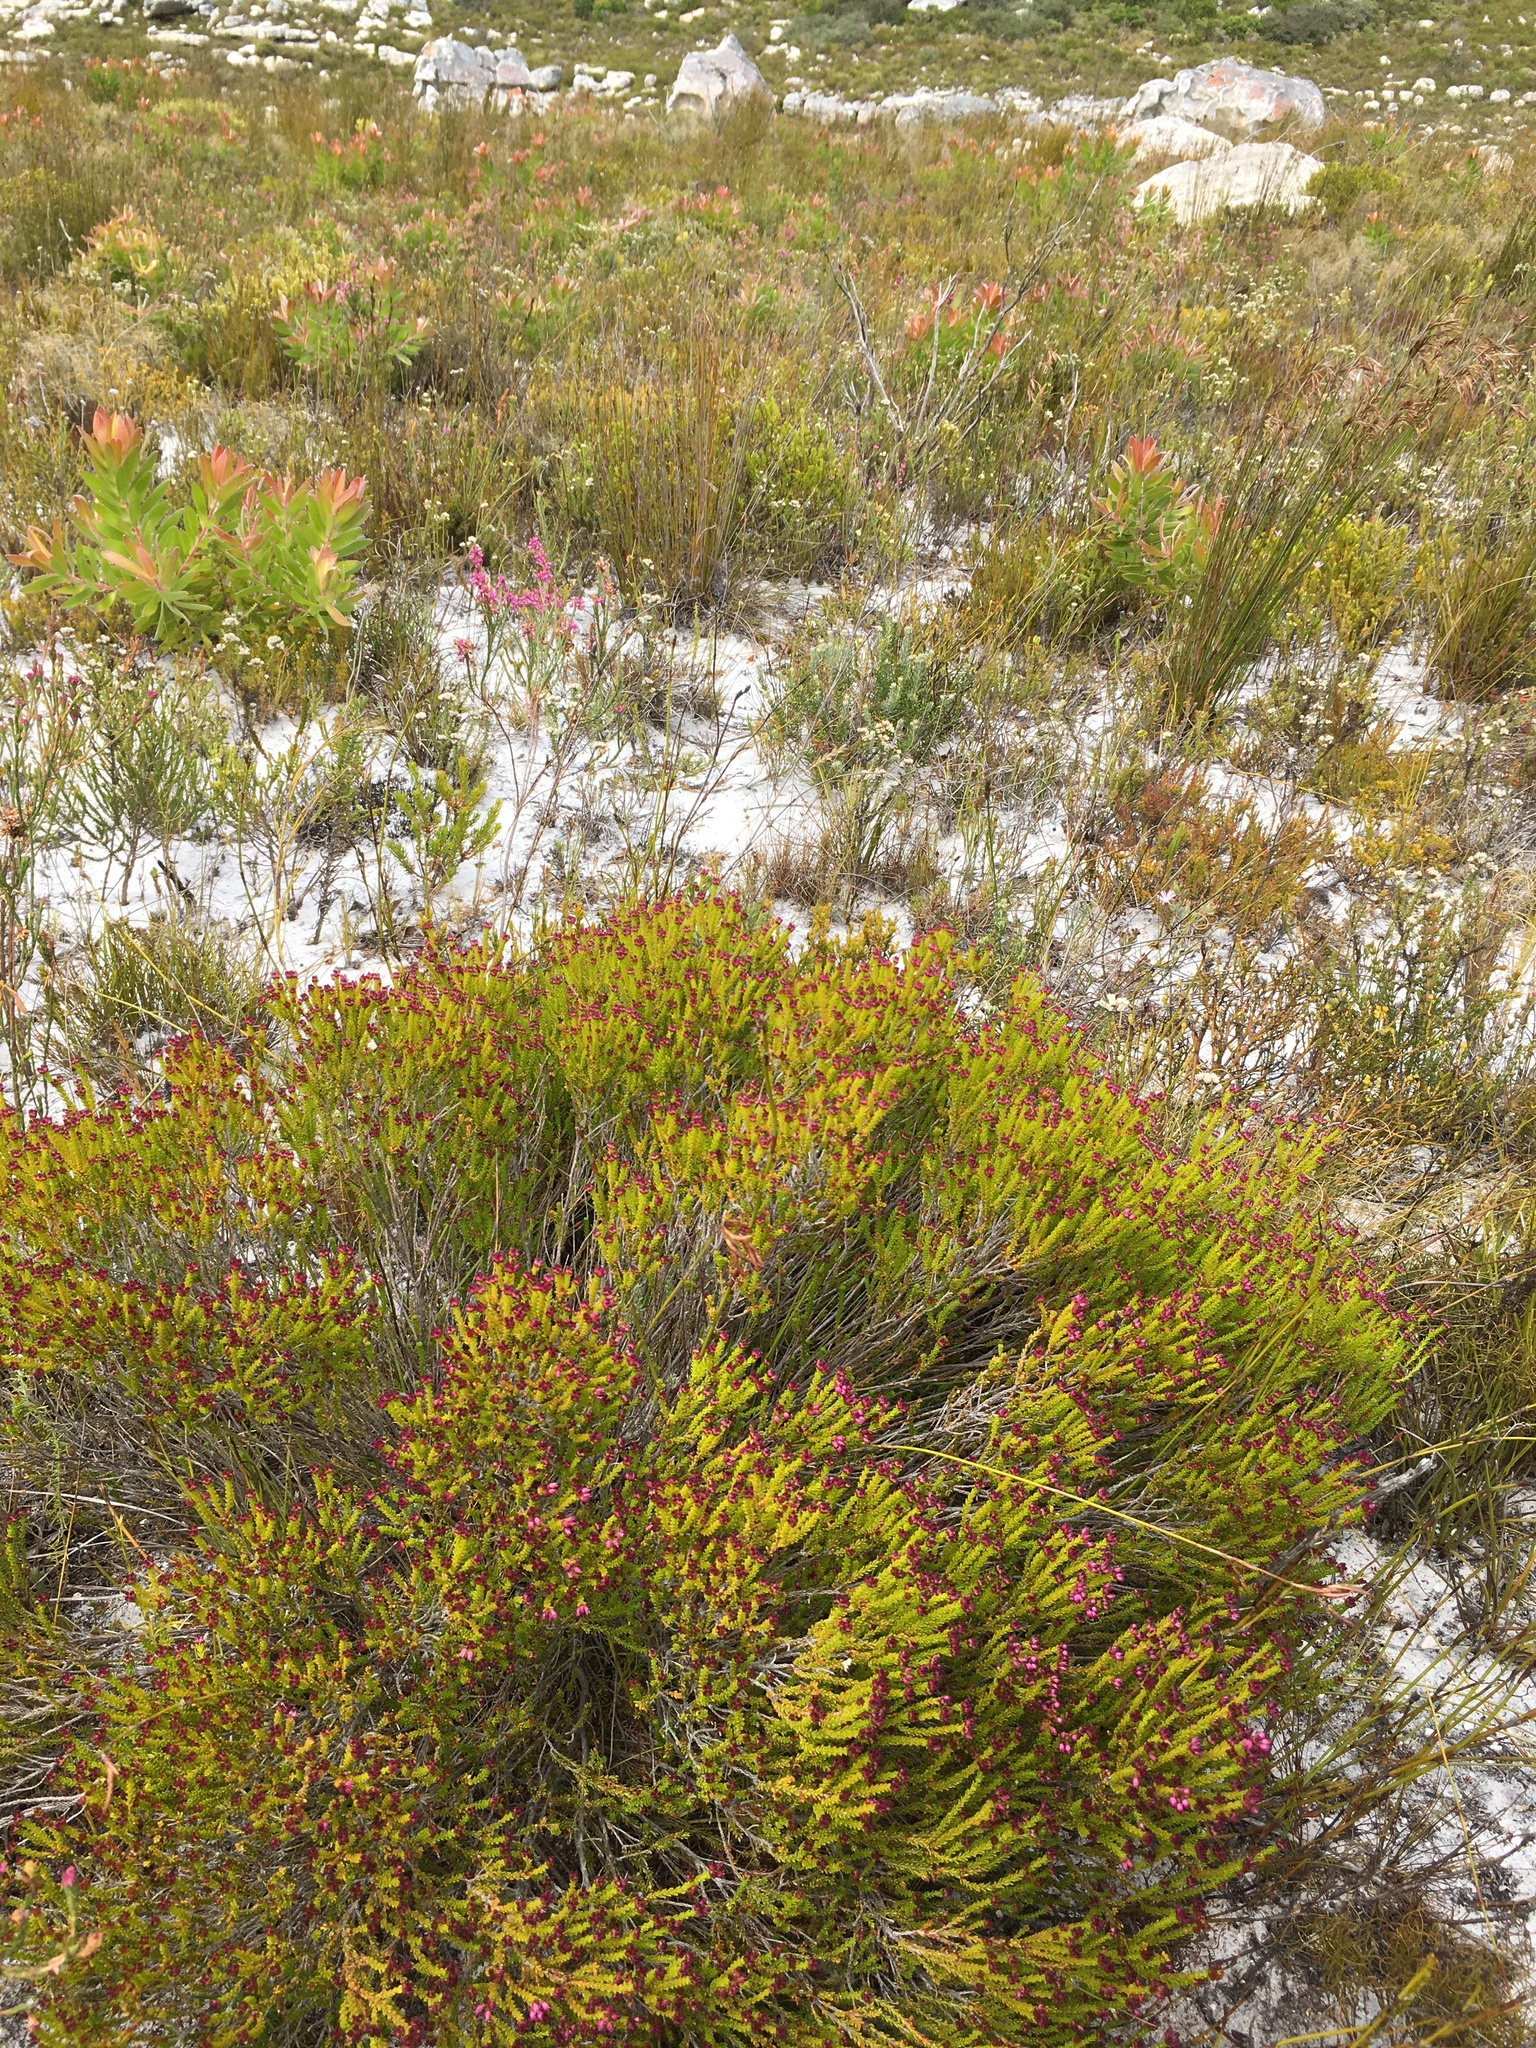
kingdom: Plantae
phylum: Tracheophyta
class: Magnoliopsida
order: Ericales
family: Ericaceae
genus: Erica
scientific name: Erica ferrea
